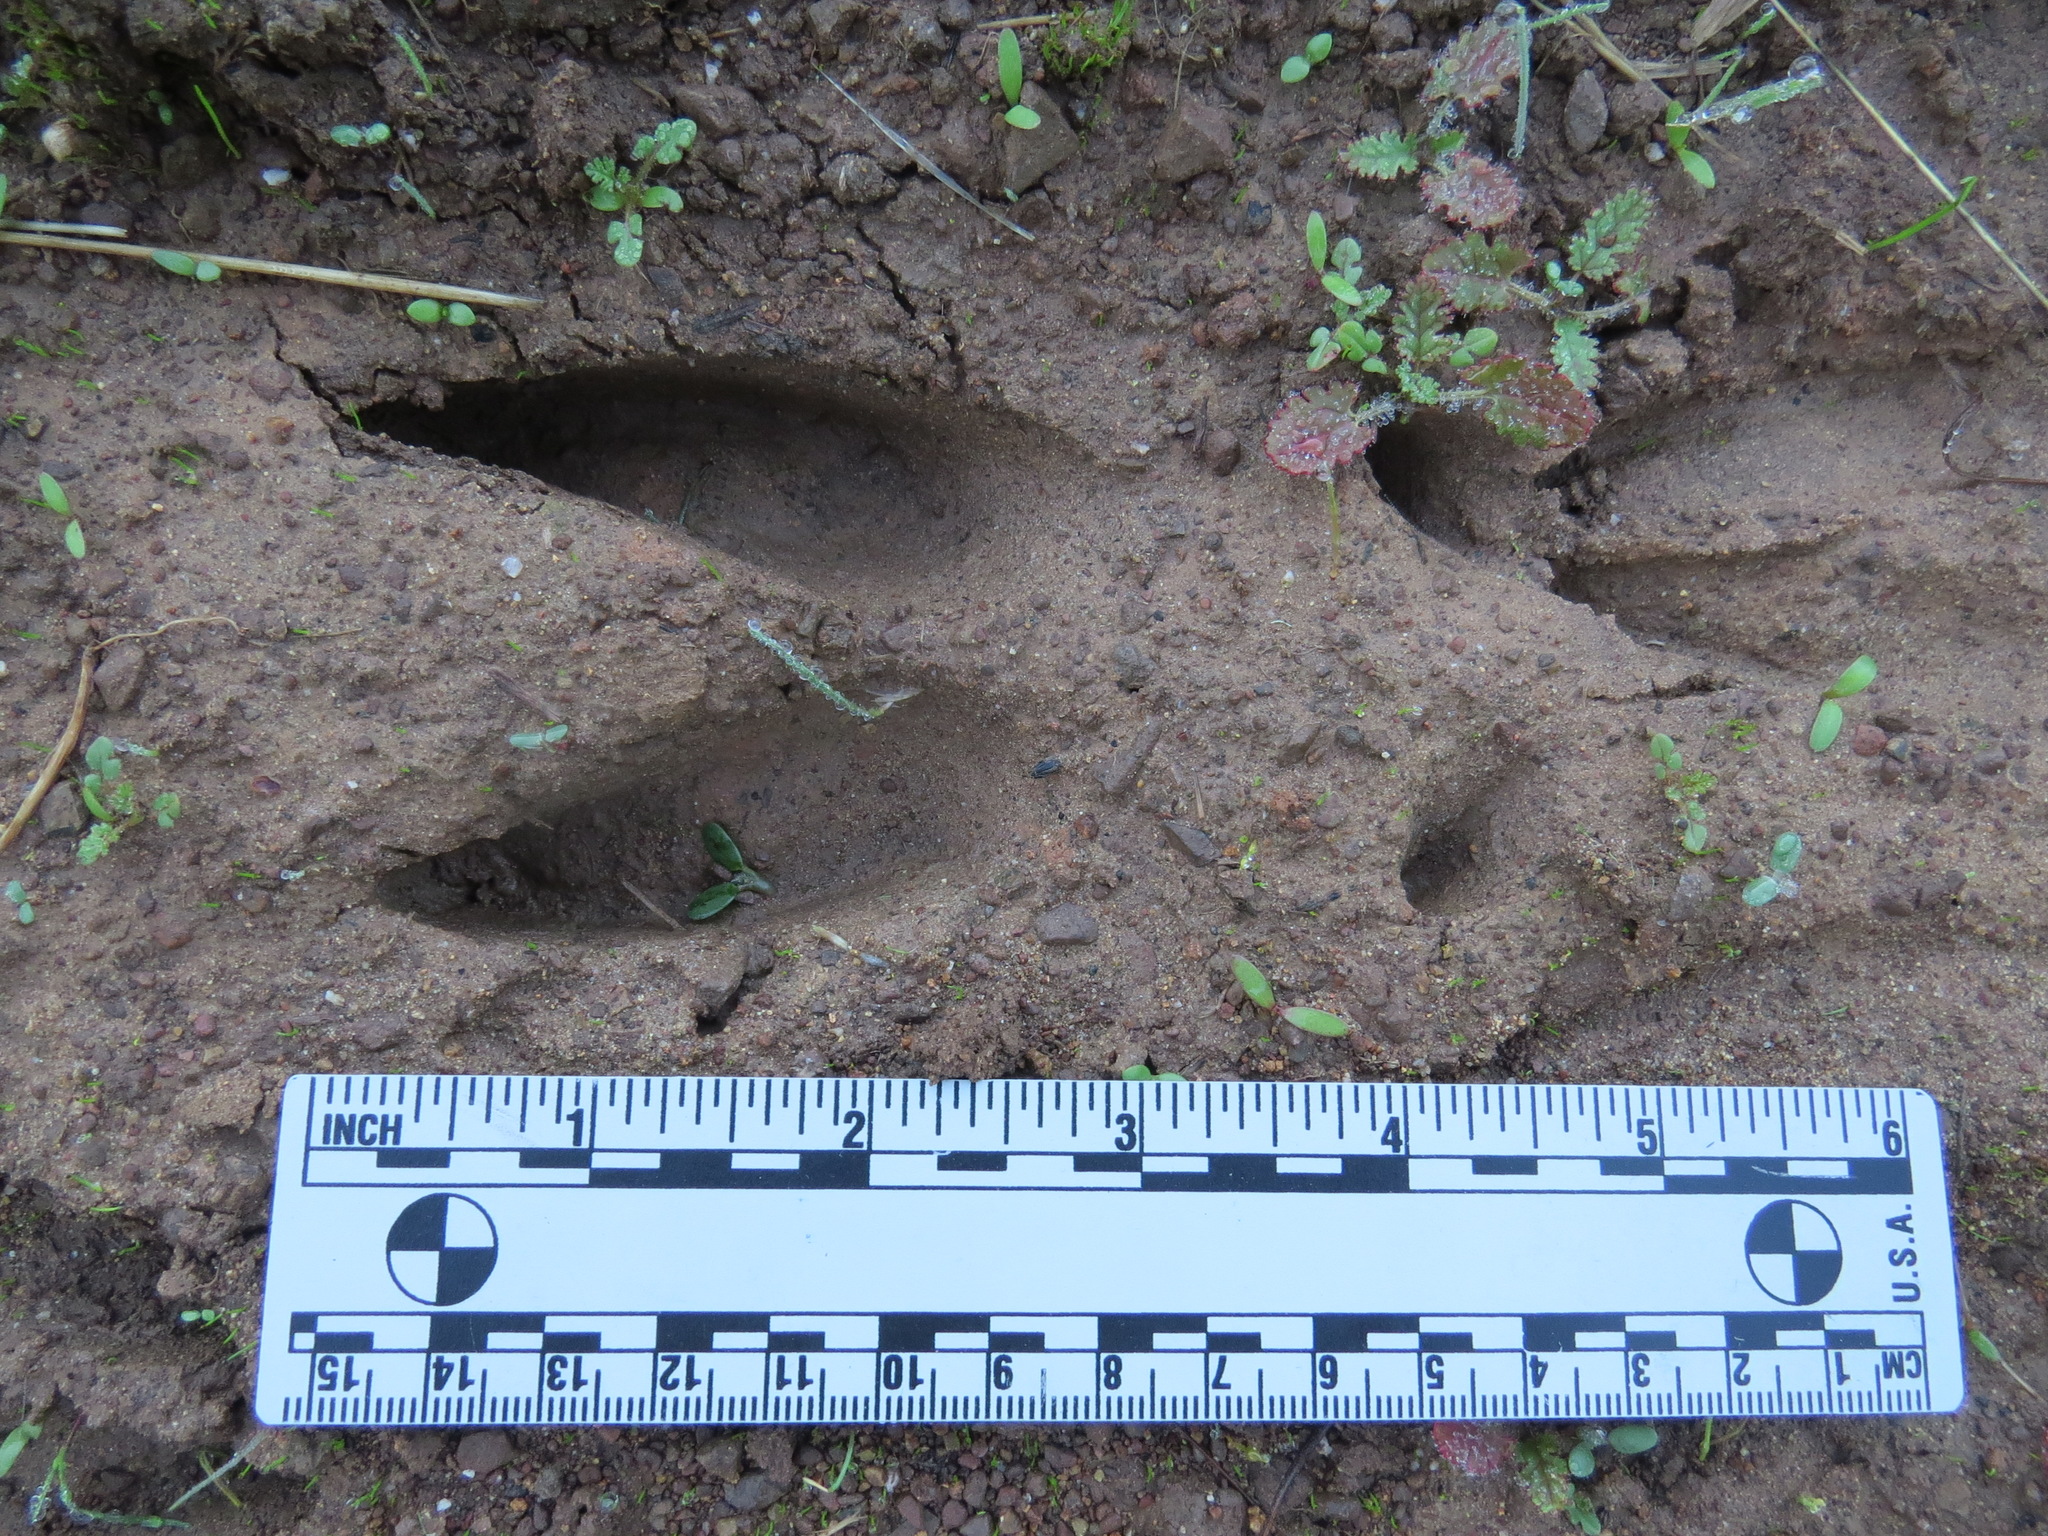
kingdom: Animalia
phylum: Chordata
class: Mammalia
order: Artiodactyla
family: Cervidae
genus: Odocoileus
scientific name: Odocoileus hemionus
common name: Mule deer
